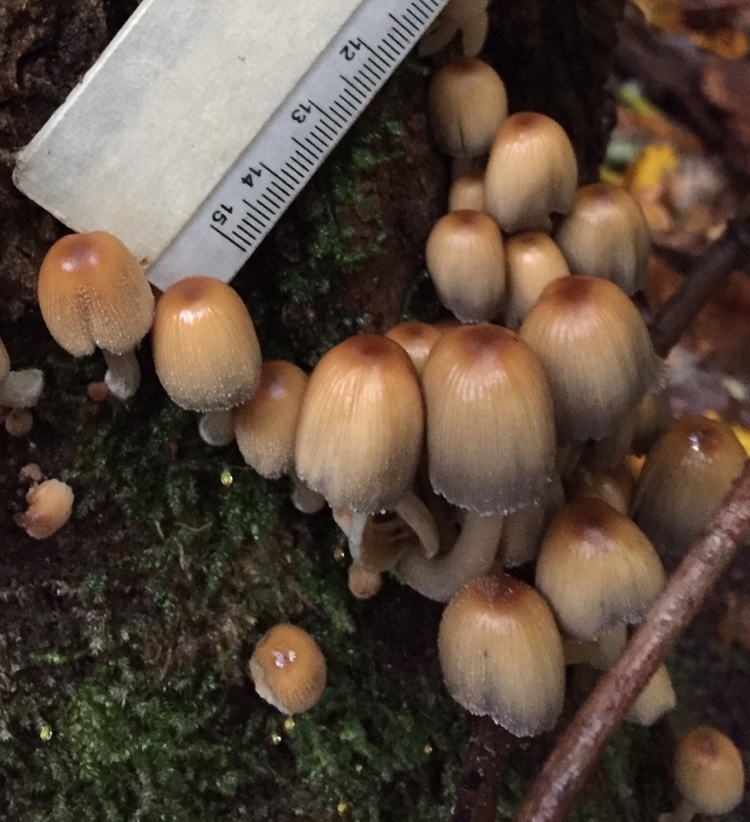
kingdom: Fungi
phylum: Basidiomycota
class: Agaricomycetes
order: Agaricales
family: Psathyrellaceae
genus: Coprinellus
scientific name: Coprinellus micaceus
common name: Glistening ink-cap
